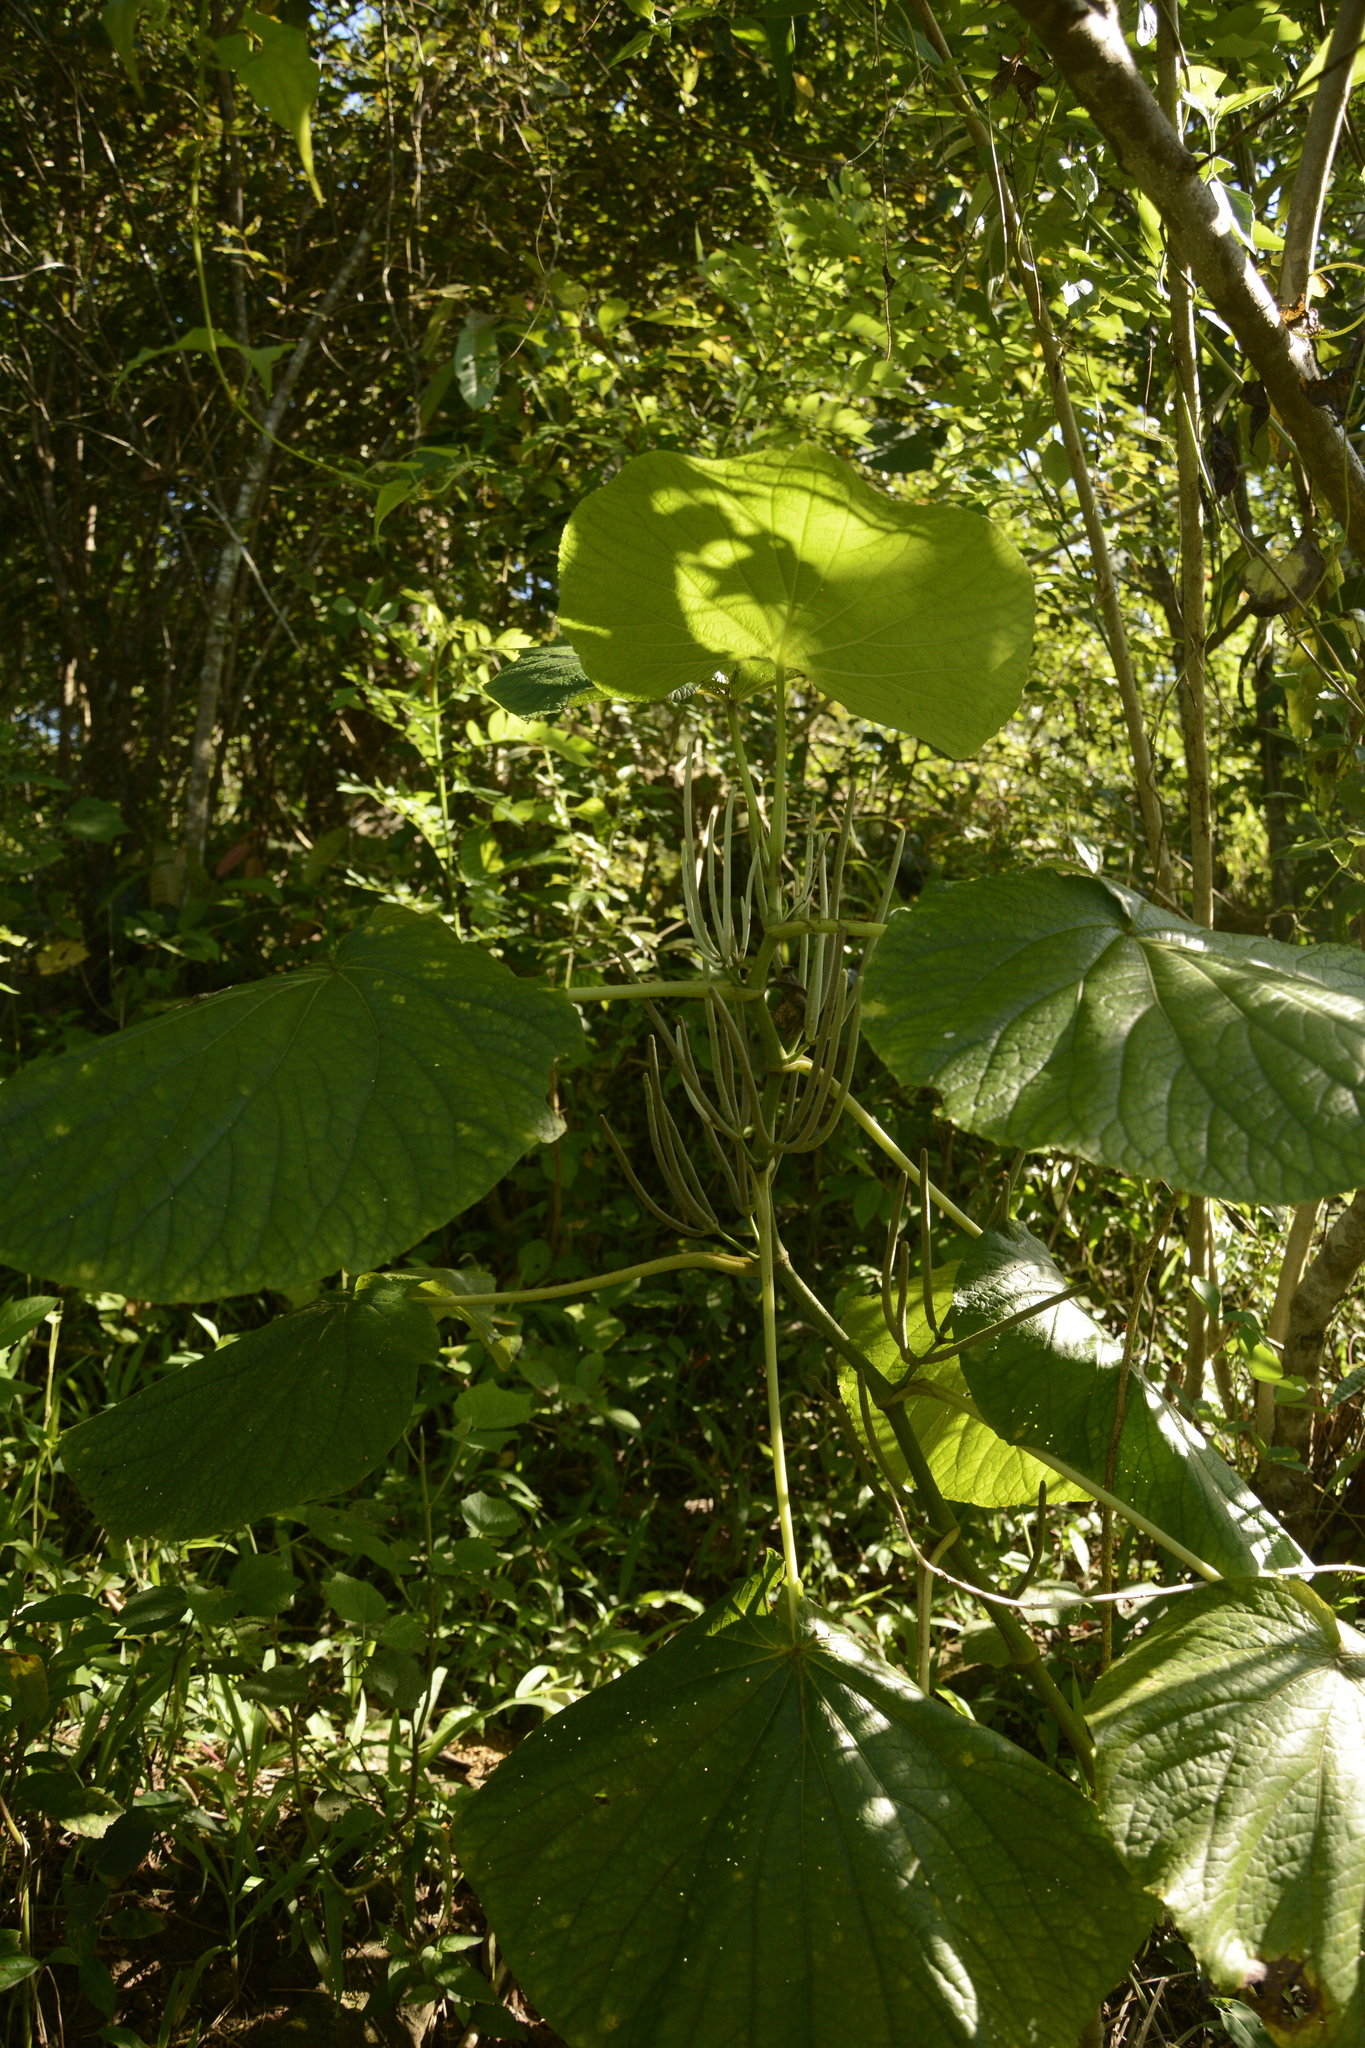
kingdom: Plantae
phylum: Tracheophyta
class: Magnoliopsida
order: Piperales
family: Piperaceae
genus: Piper
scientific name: Piper umbellatum
